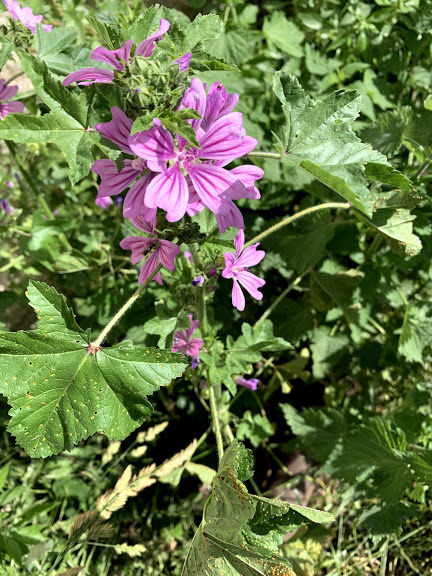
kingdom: Plantae
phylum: Tracheophyta
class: Magnoliopsida
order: Malvales
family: Malvaceae
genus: Malva
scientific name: Malva sylvestris
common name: Common mallow
